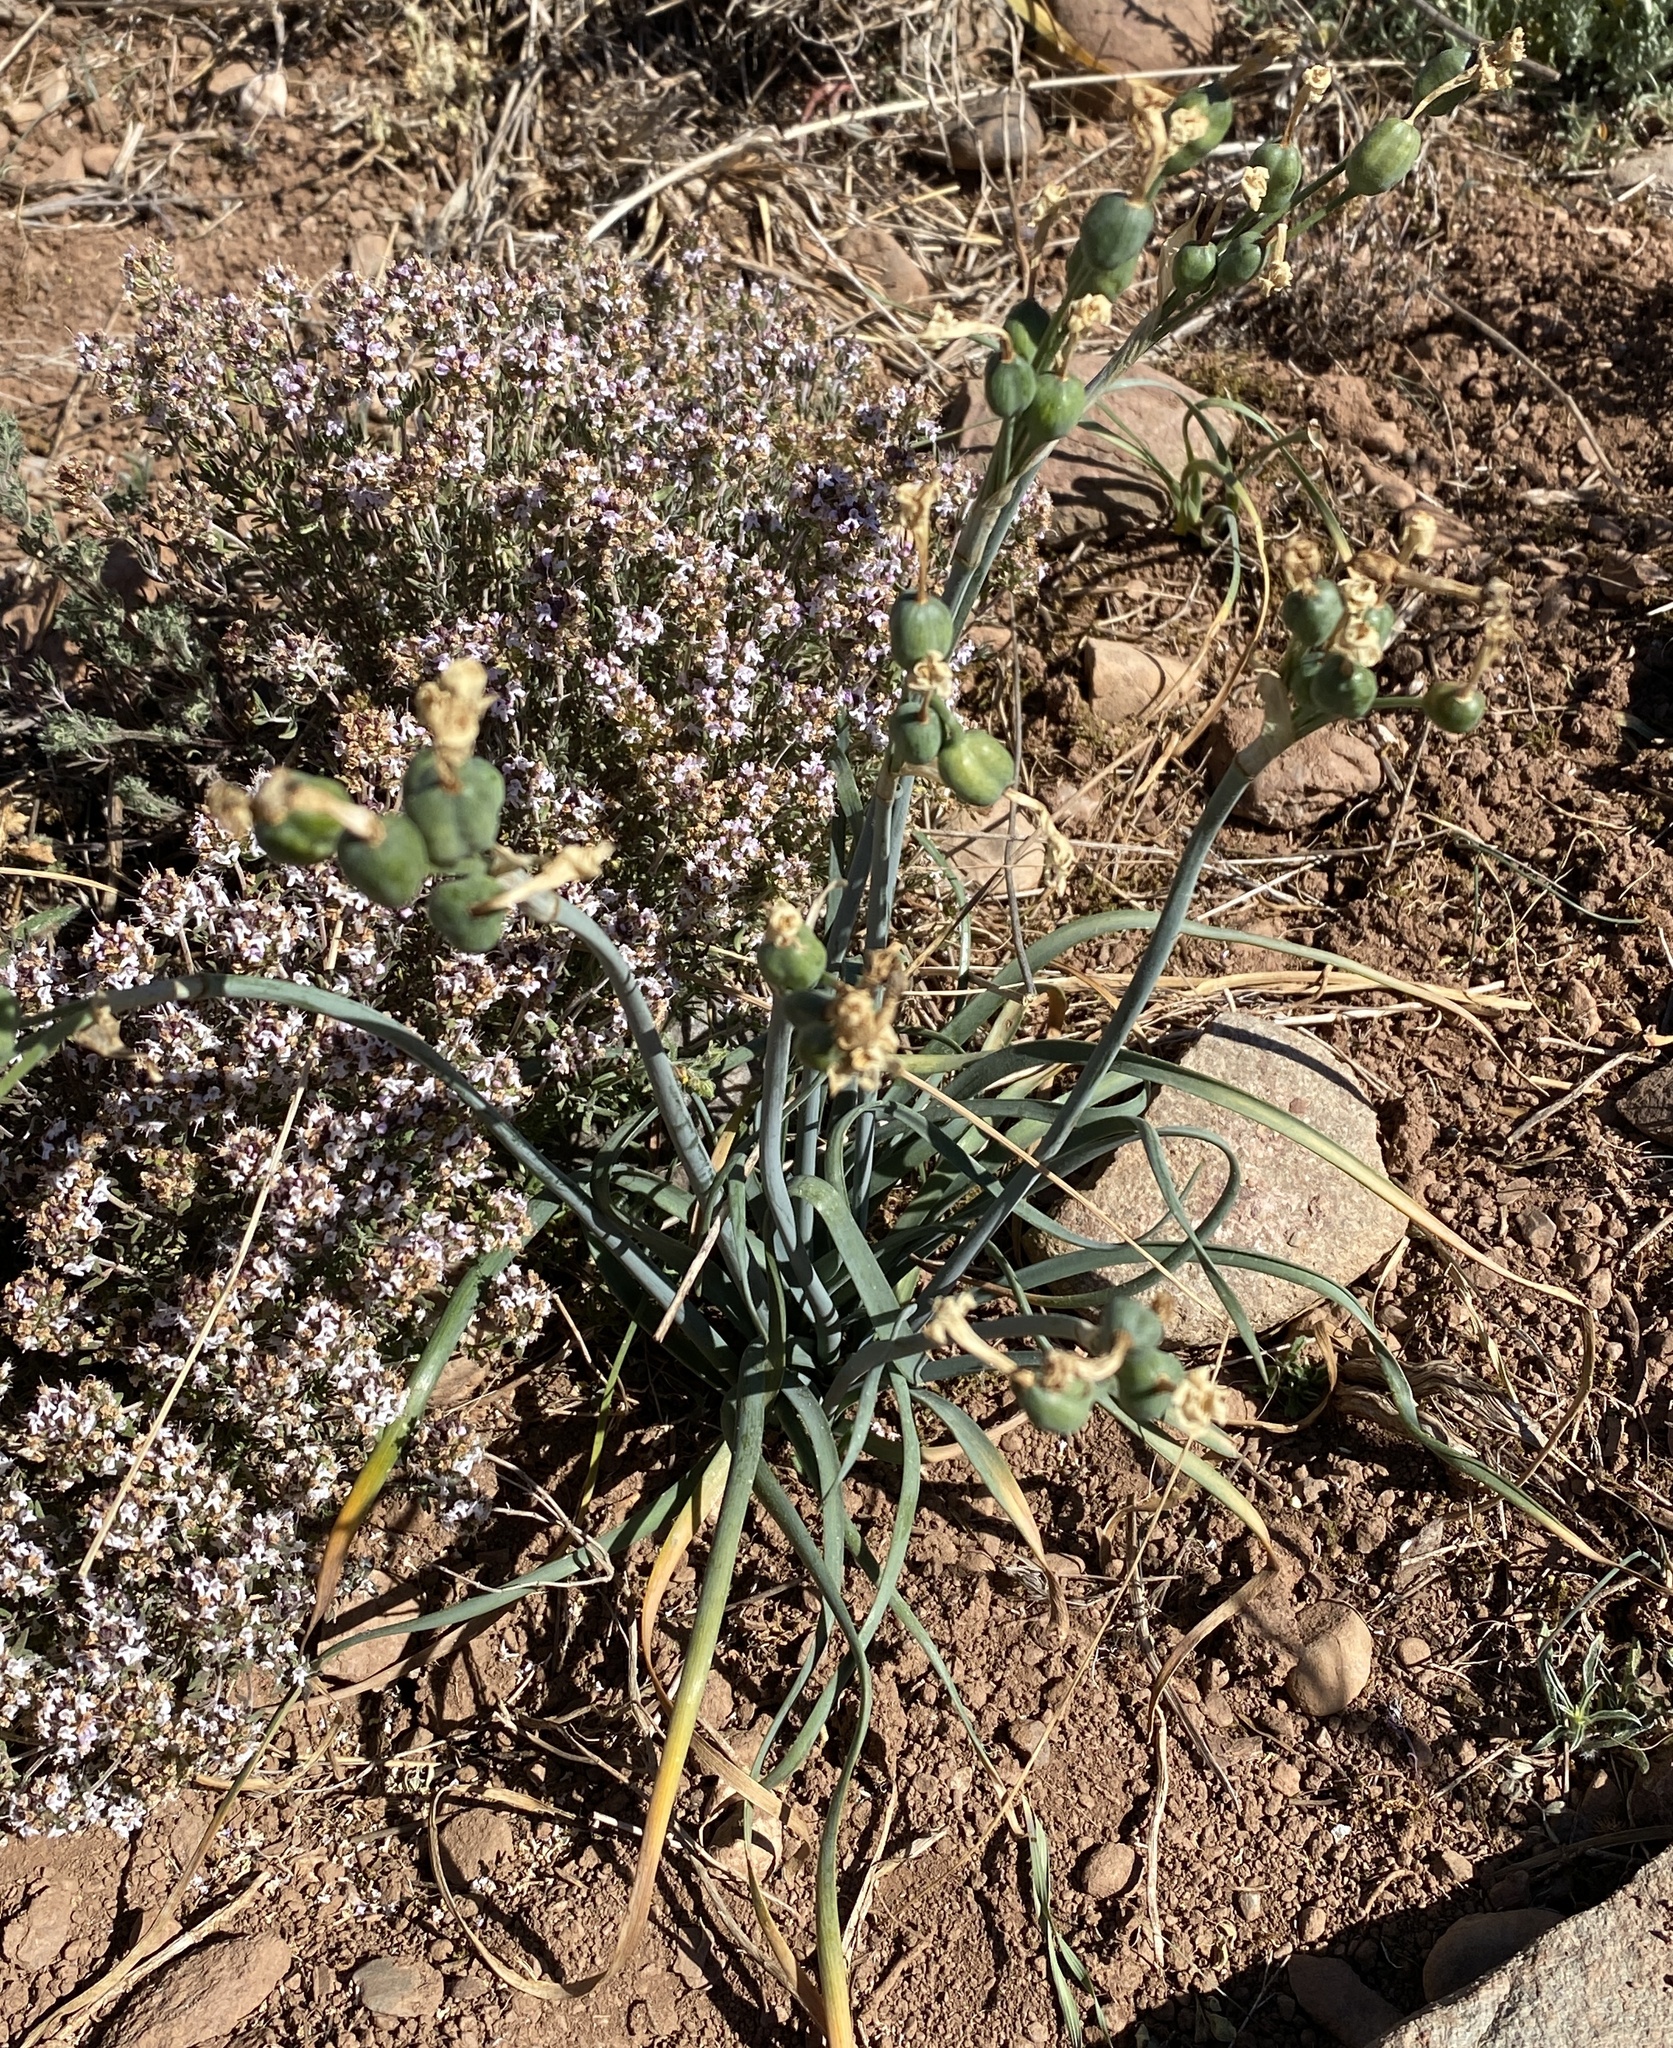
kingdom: Plantae
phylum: Tracheophyta
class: Liliopsida
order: Asparagales
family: Amaryllidaceae
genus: Narcissus
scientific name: Narcissus dubius
